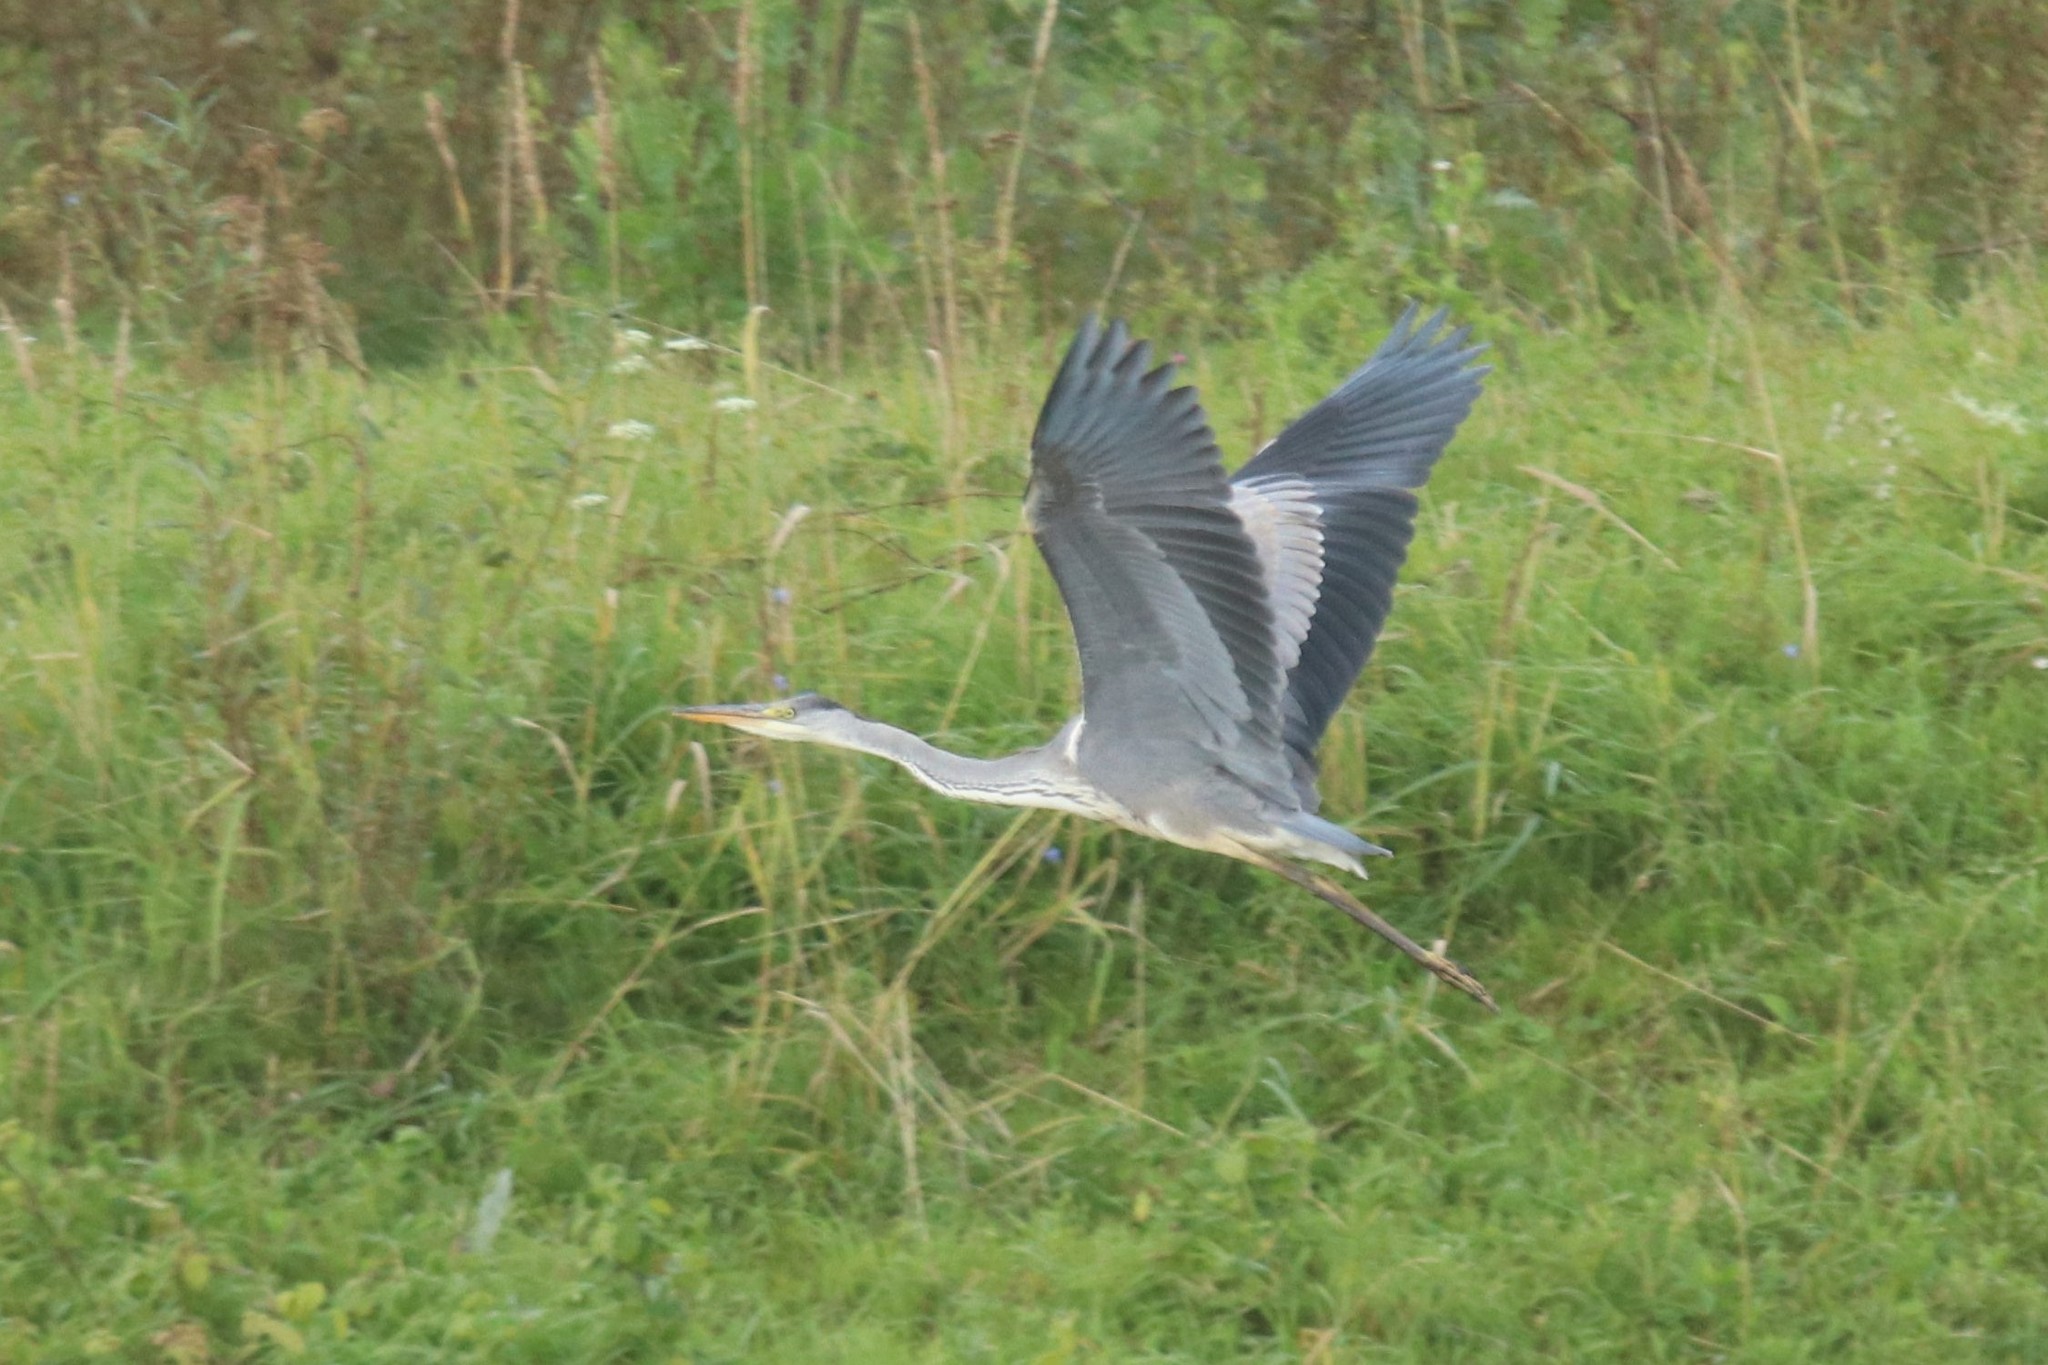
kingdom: Animalia
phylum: Chordata
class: Aves
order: Pelecaniformes
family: Ardeidae
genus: Ardea
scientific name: Ardea cinerea
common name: Grey heron
